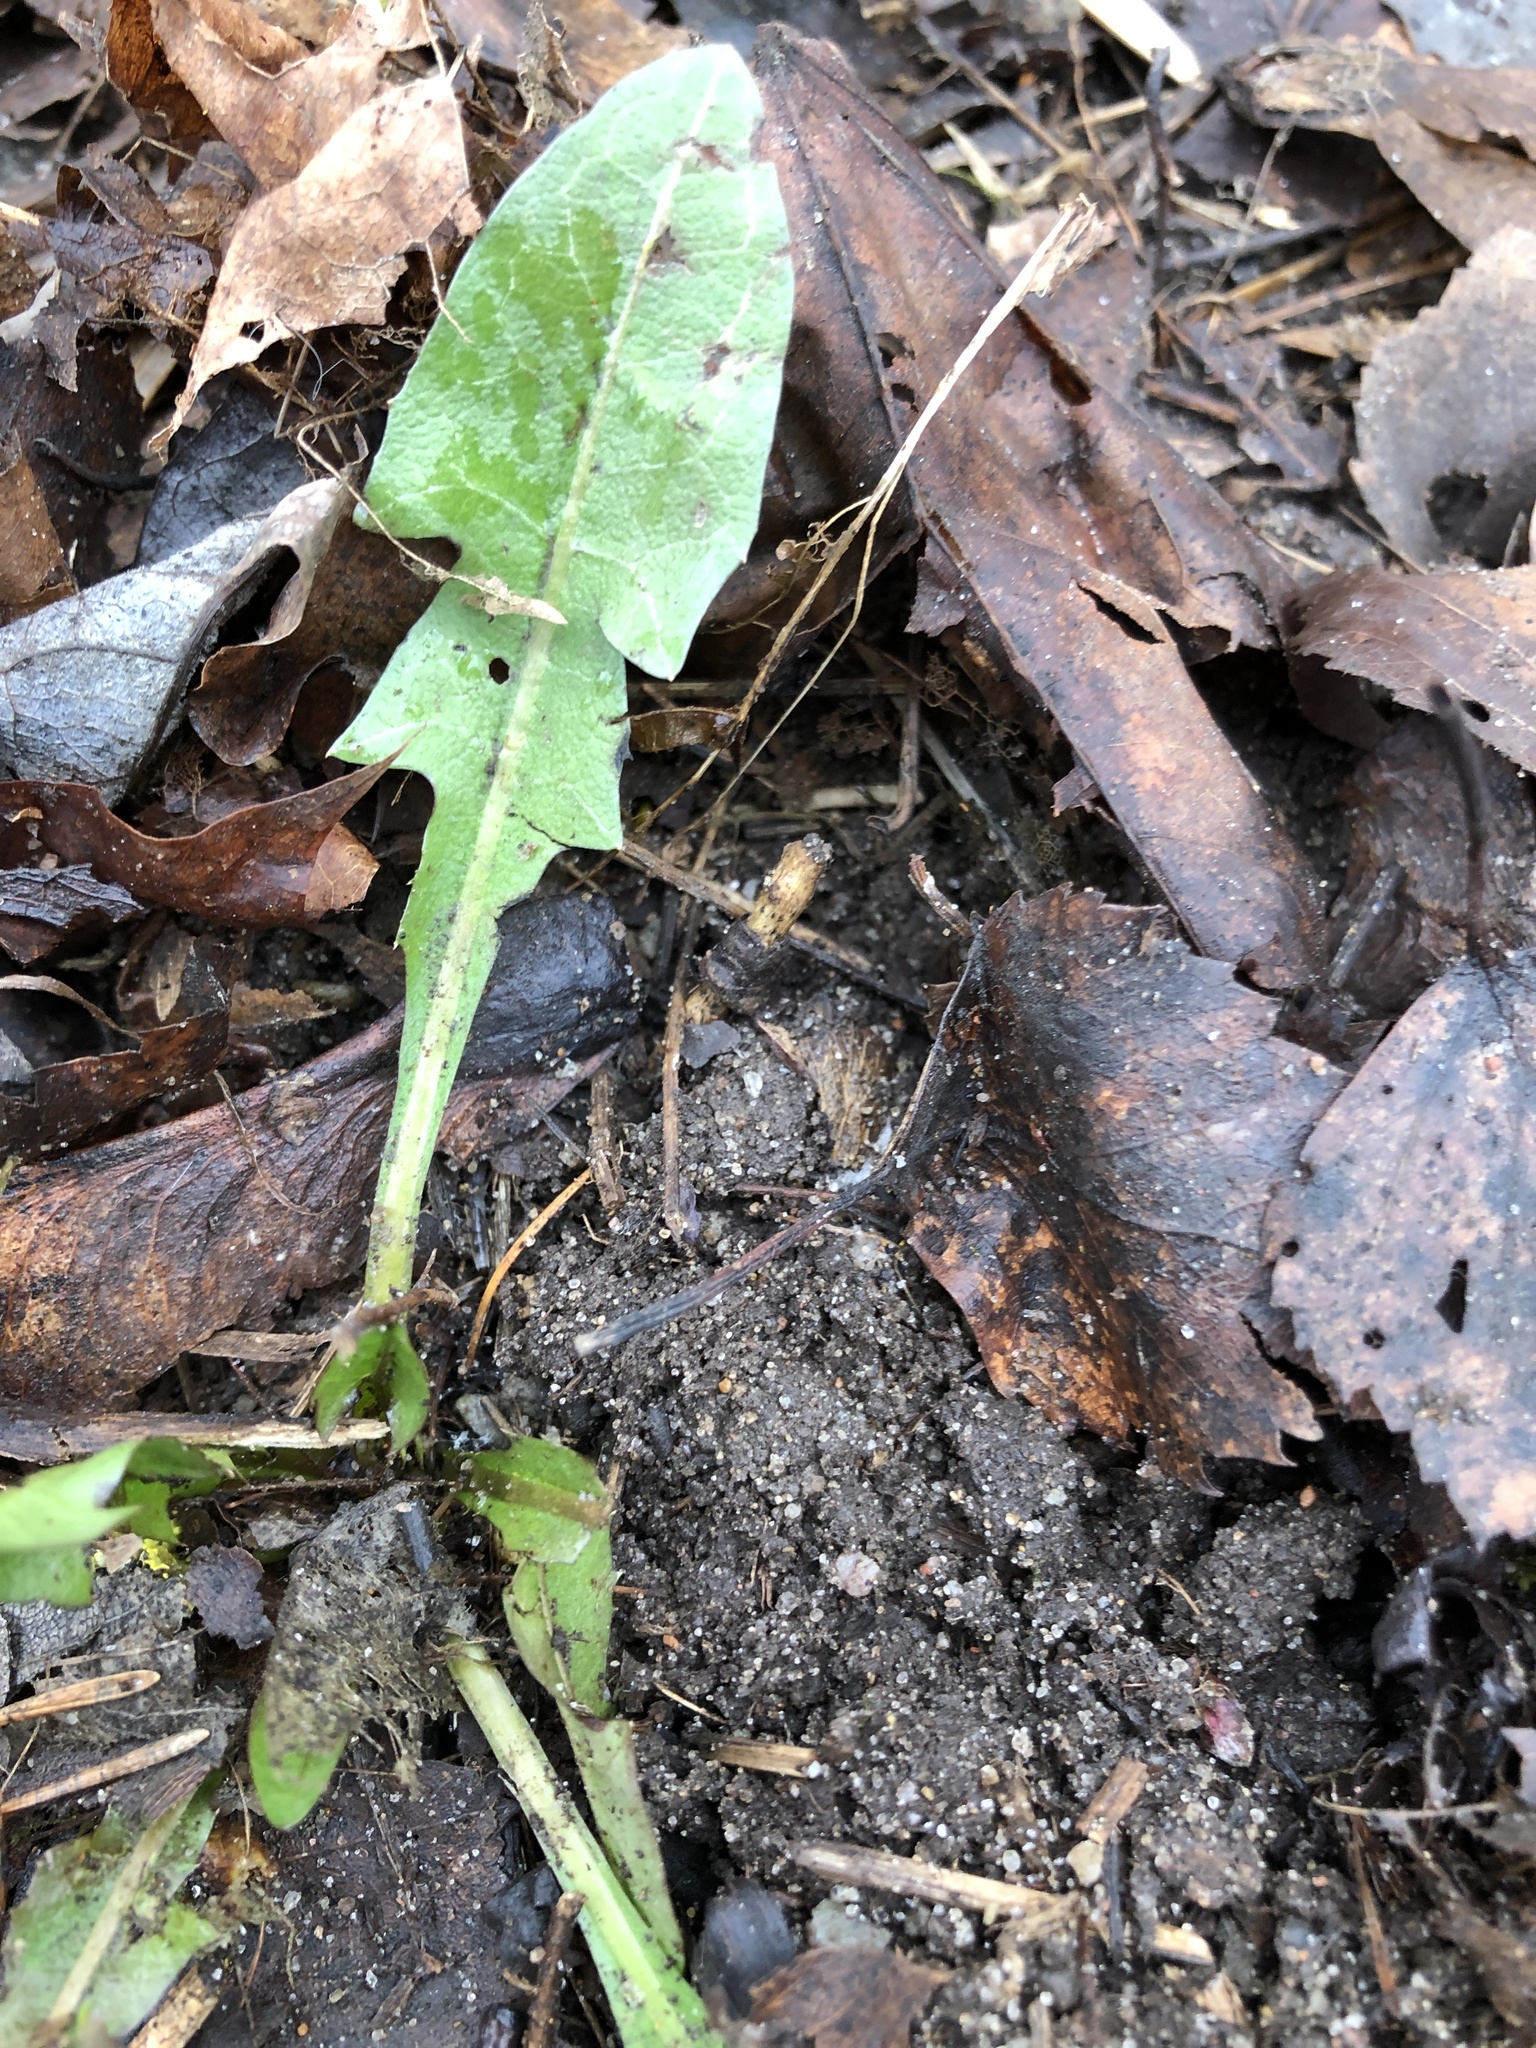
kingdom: Plantae
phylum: Tracheophyta
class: Magnoliopsida
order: Asterales
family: Asteraceae
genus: Taraxacum
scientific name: Taraxacum officinale
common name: Common dandelion
